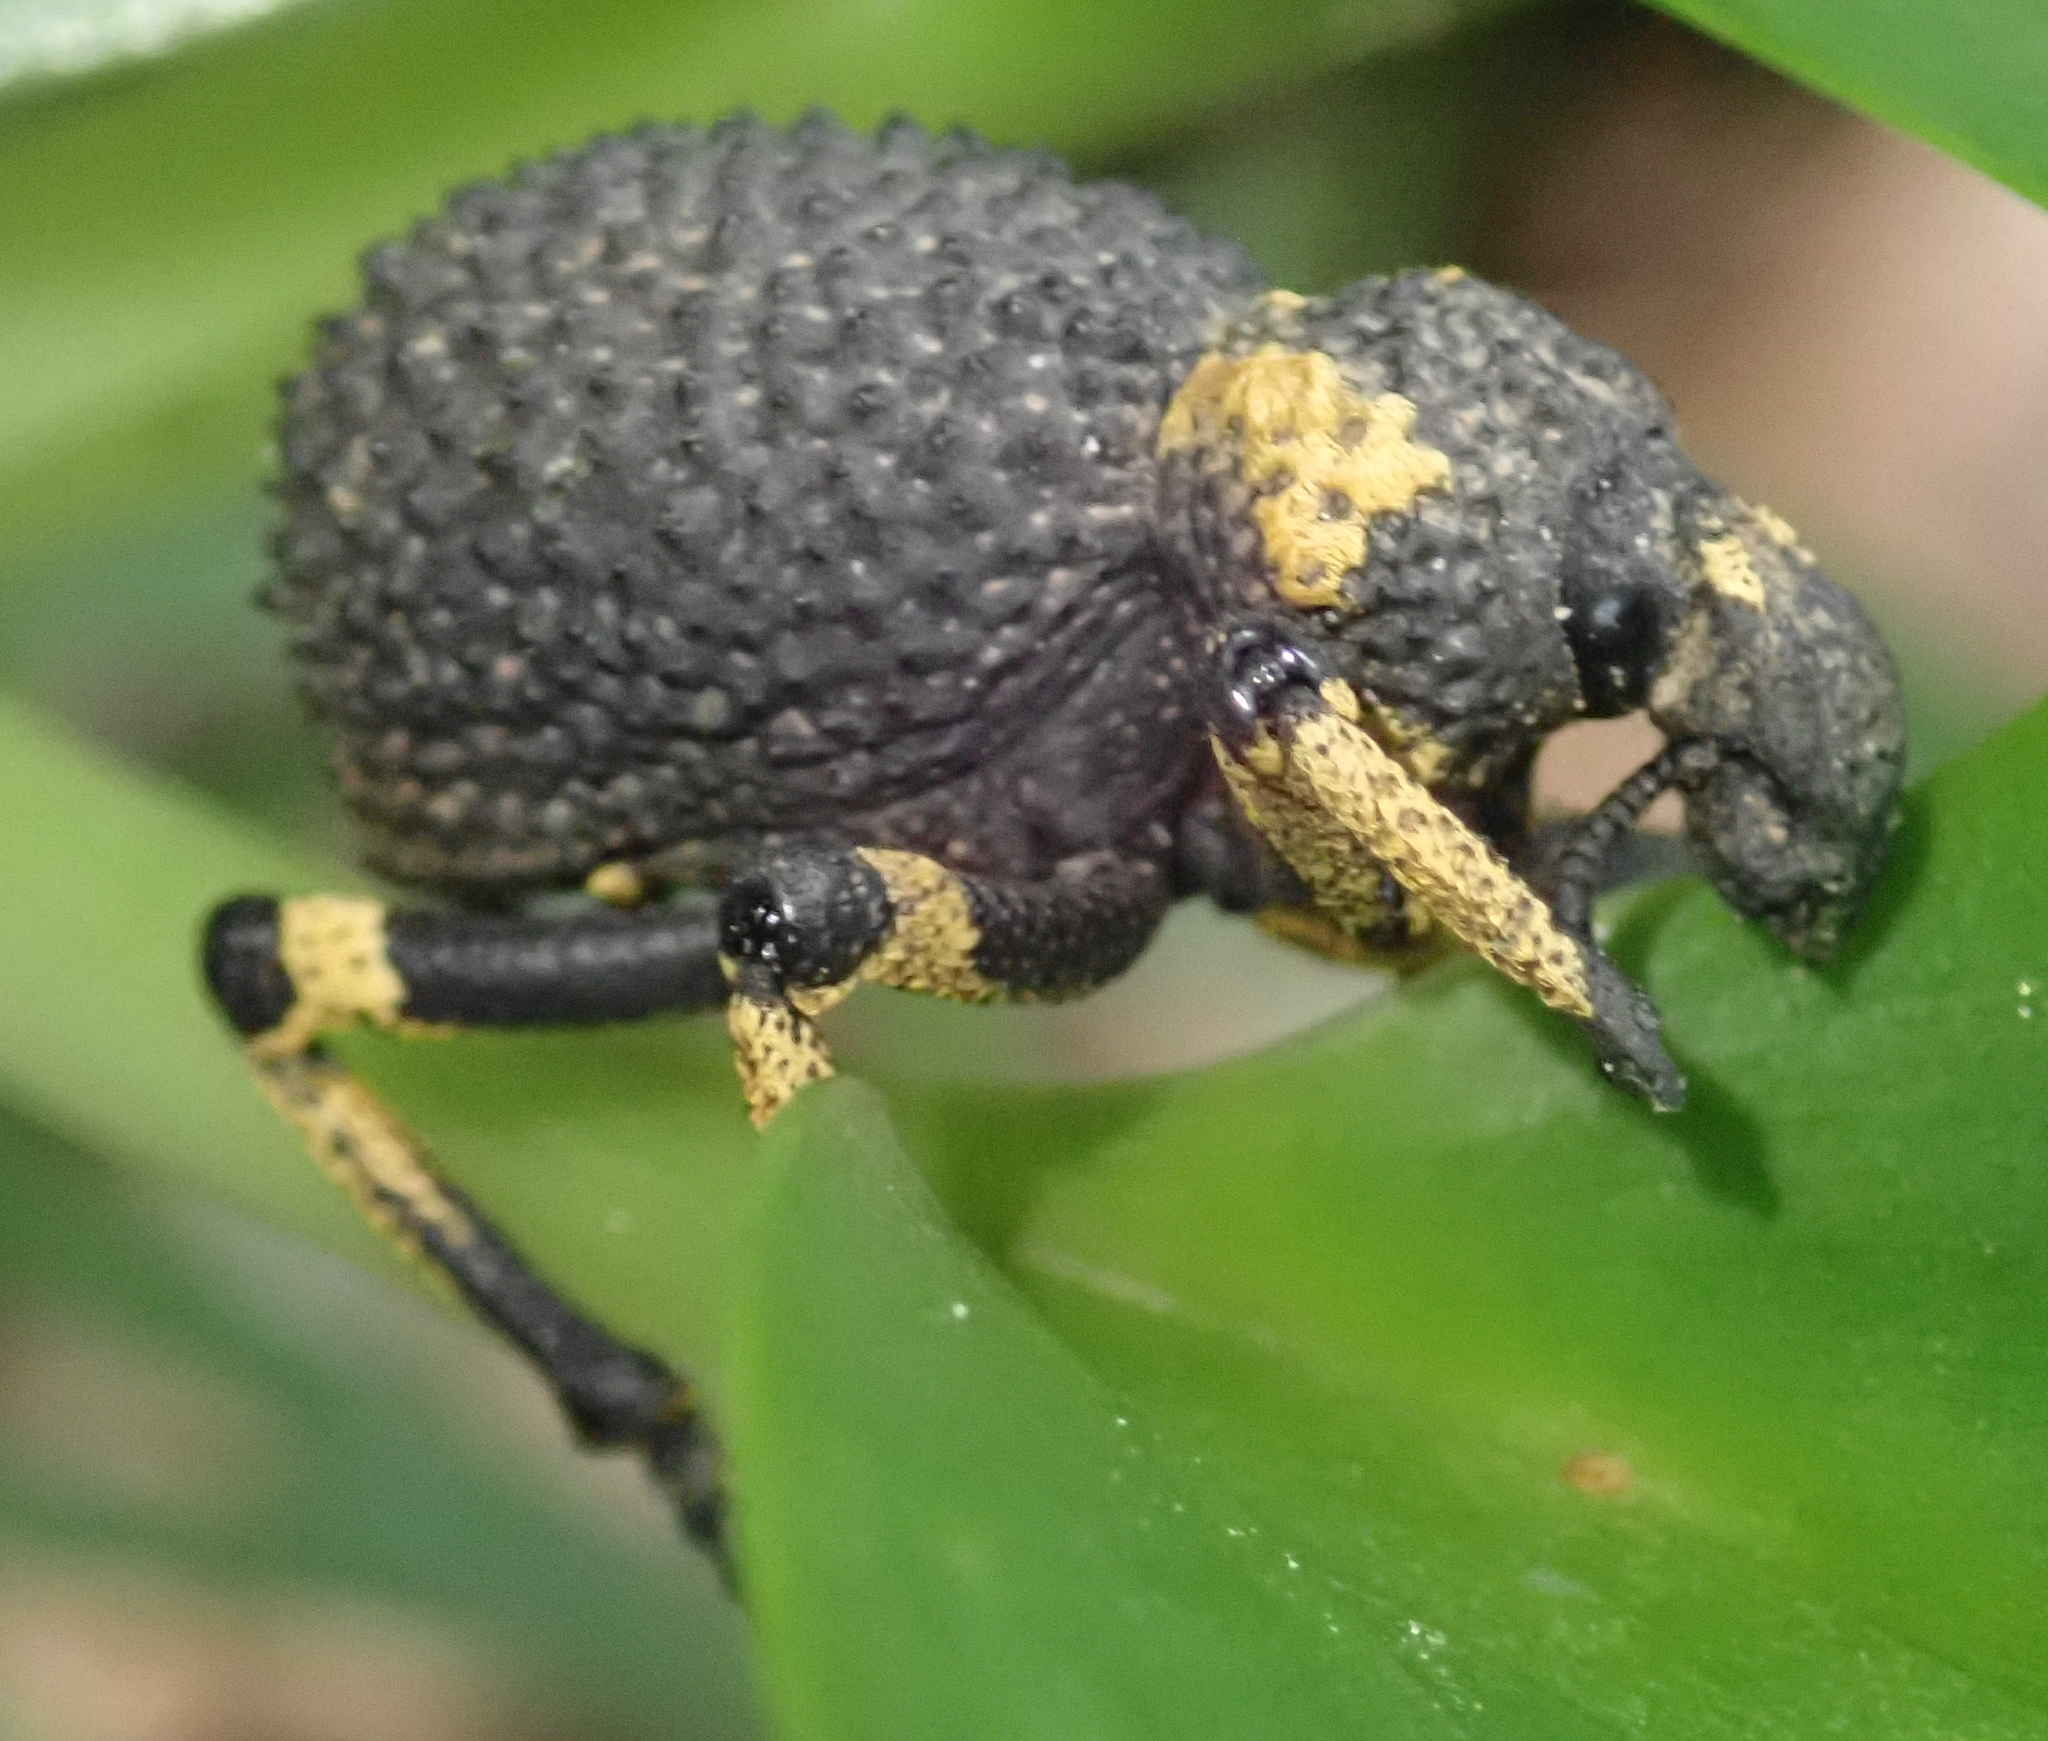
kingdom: Animalia
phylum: Arthropoda
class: Insecta
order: Coleoptera
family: Brachyceridae
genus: Brachycerus
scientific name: Brachycerus congestus
